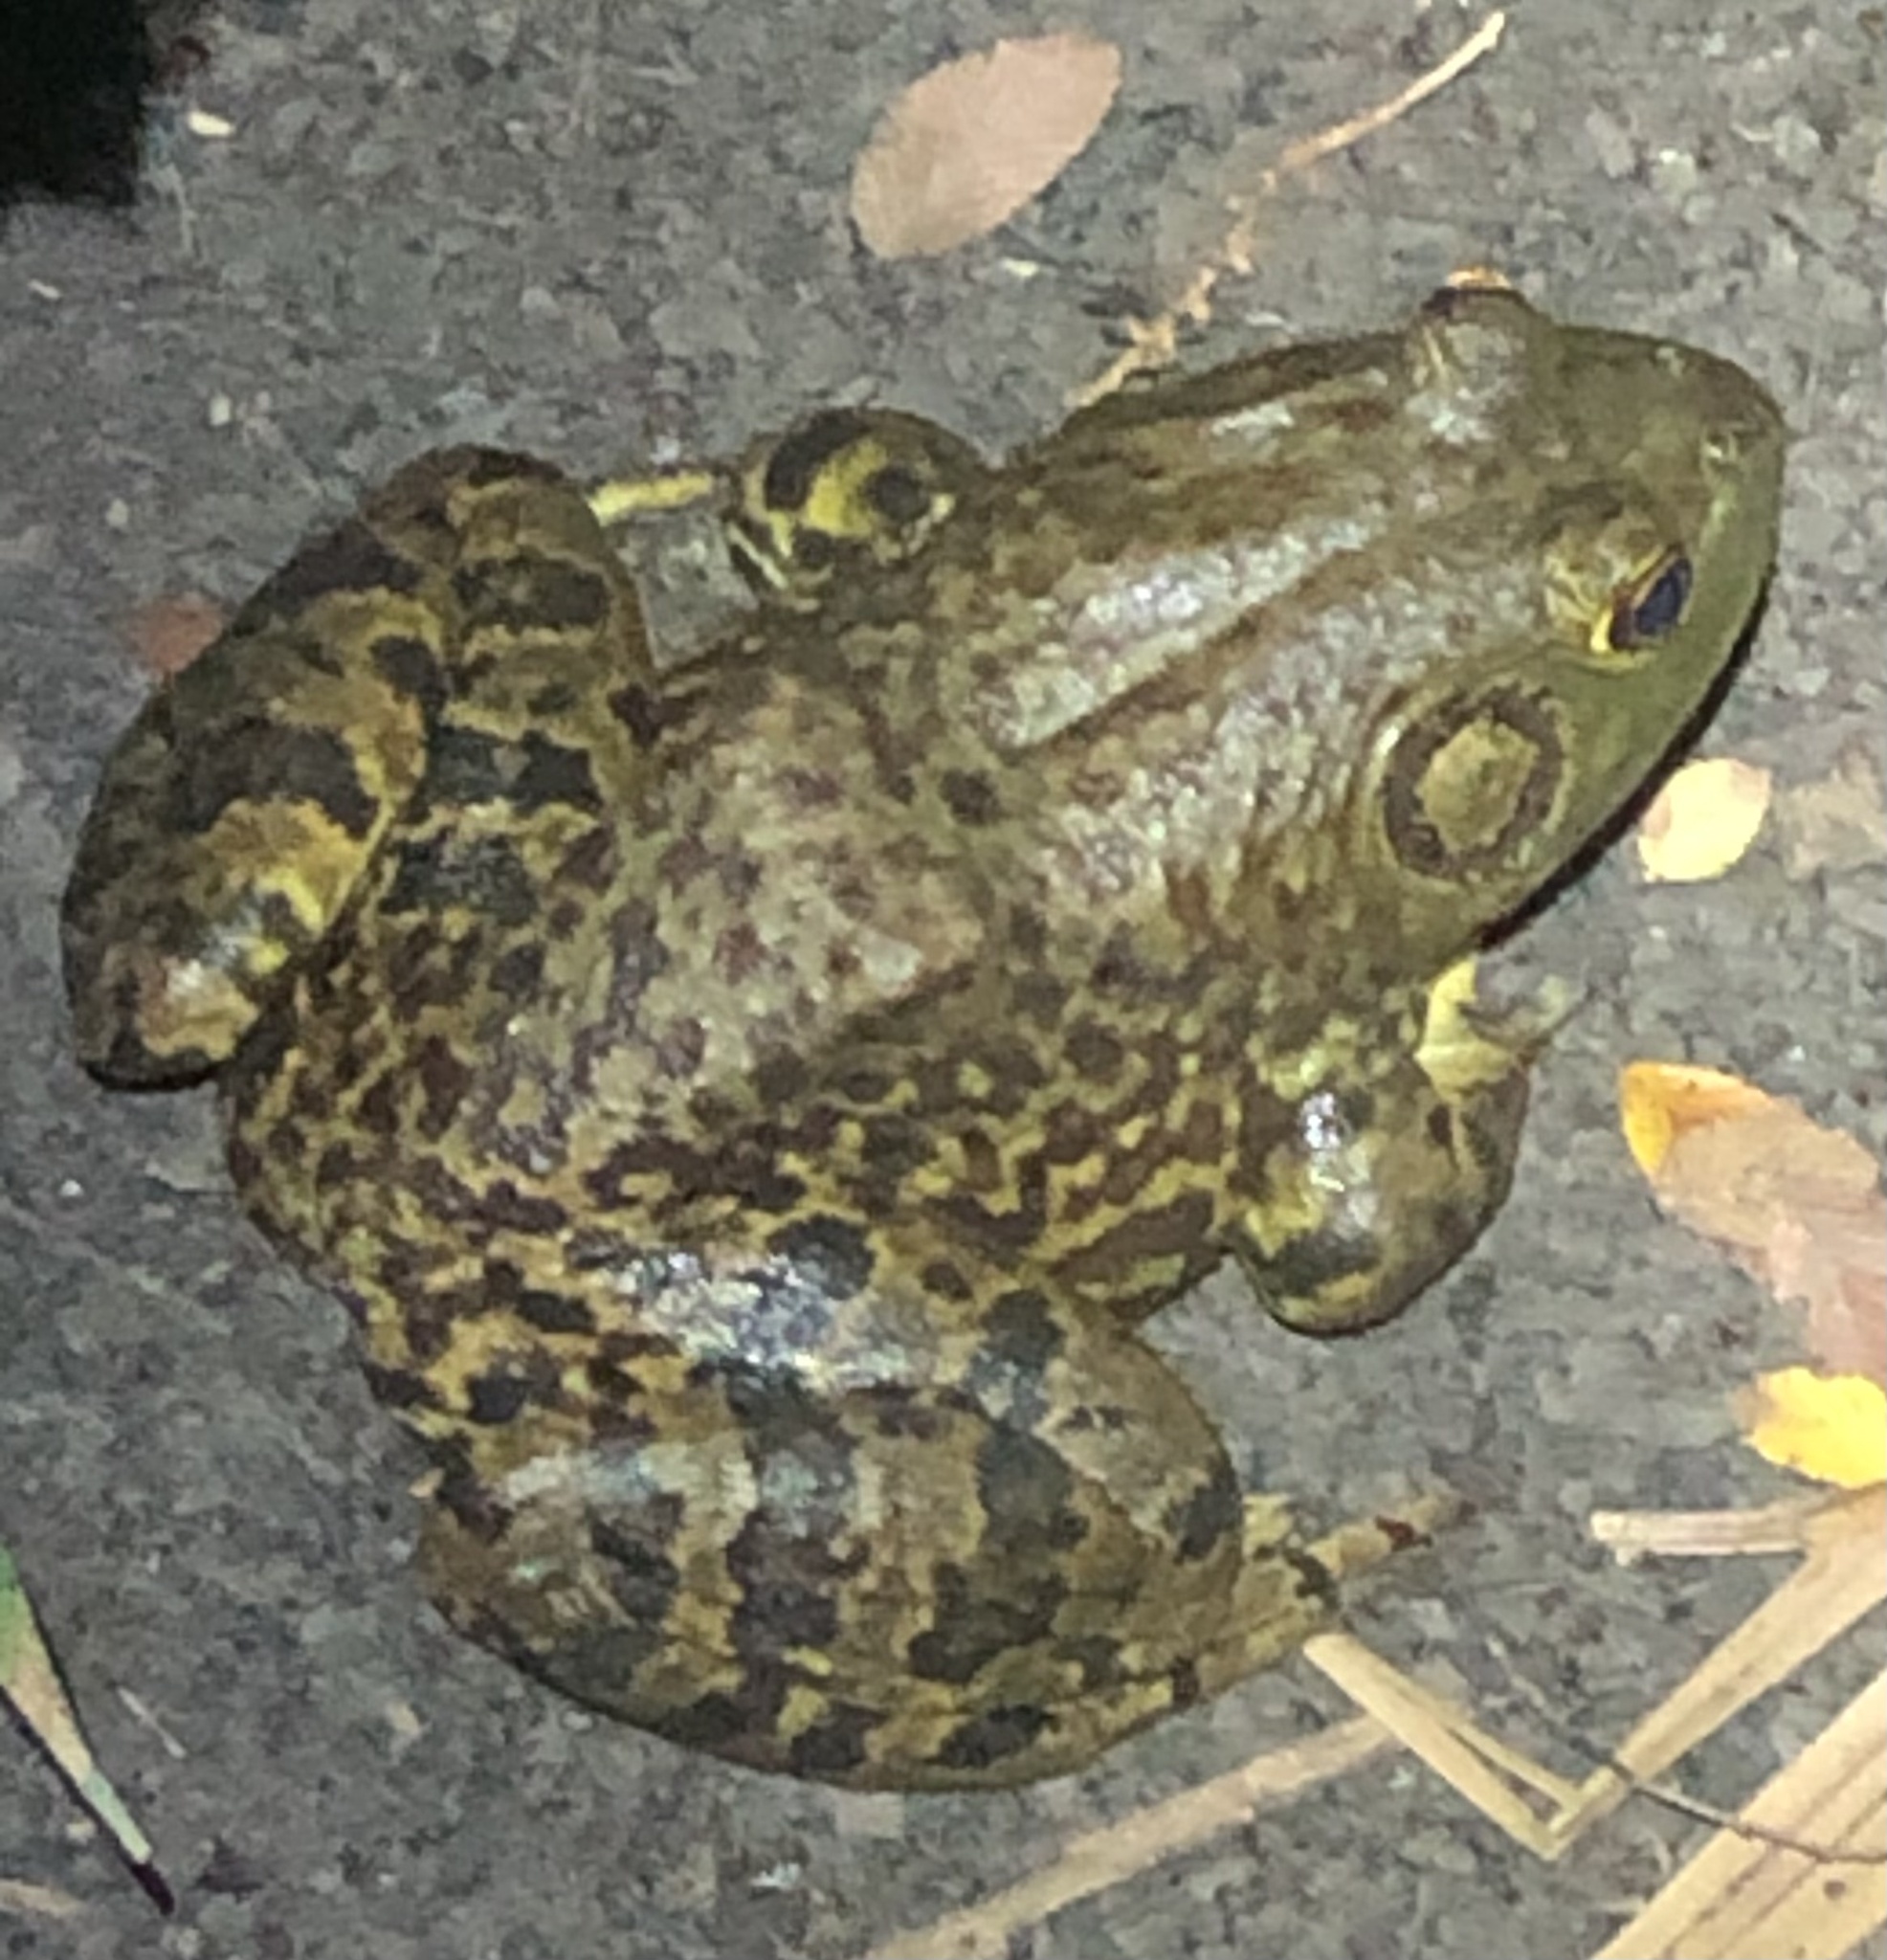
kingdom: Animalia
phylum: Chordata
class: Amphibia
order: Anura
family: Ranidae
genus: Lithobates
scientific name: Lithobates catesbeianus
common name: American bullfrog
